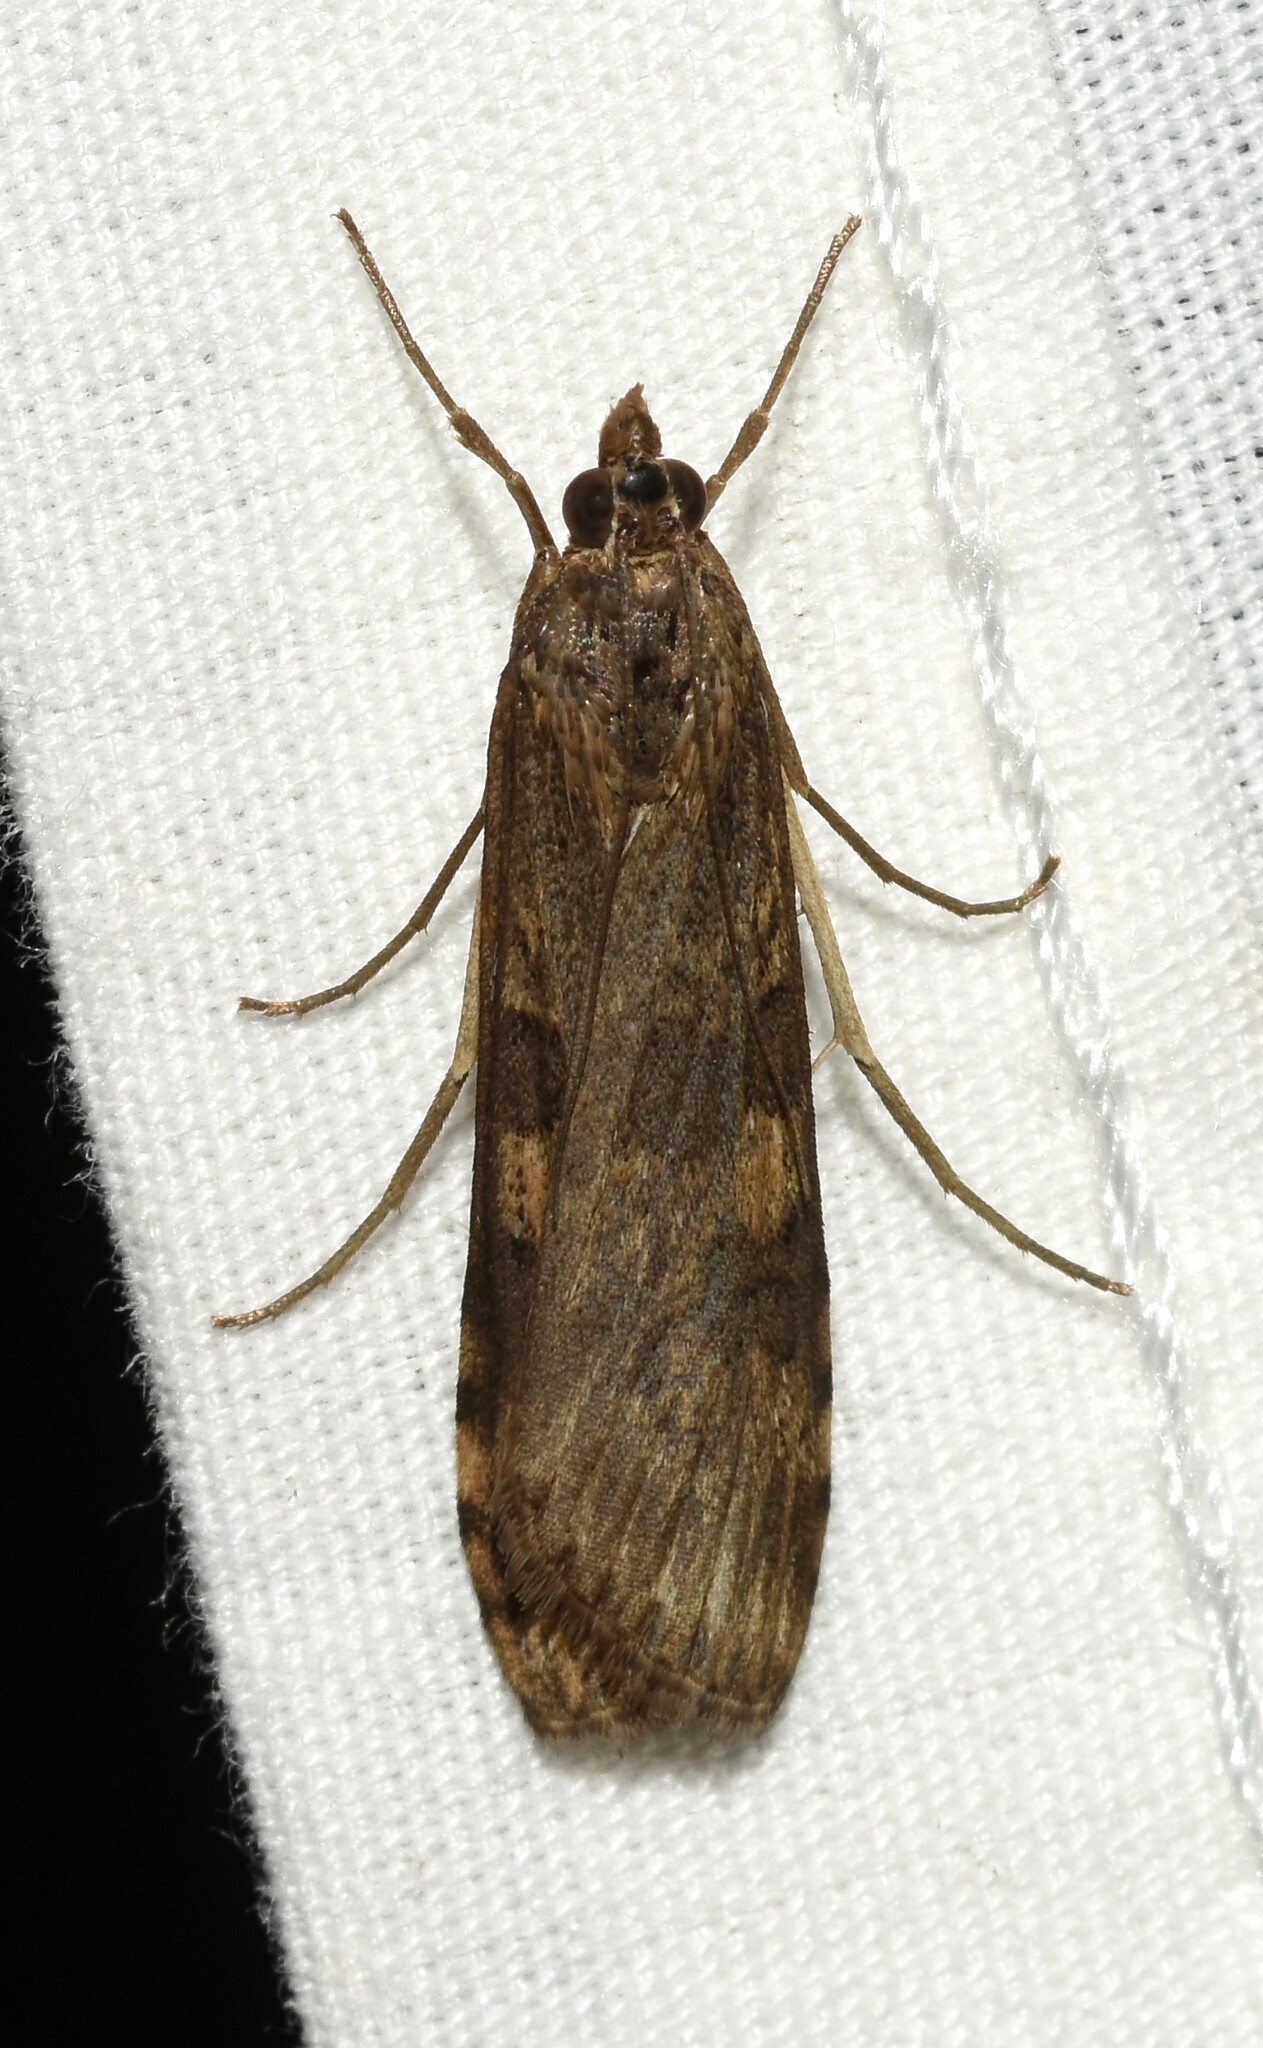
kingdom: Animalia
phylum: Arthropoda
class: Insecta
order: Lepidoptera
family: Crambidae
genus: Nomophila
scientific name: Nomophila nearctica
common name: American rush veneer
